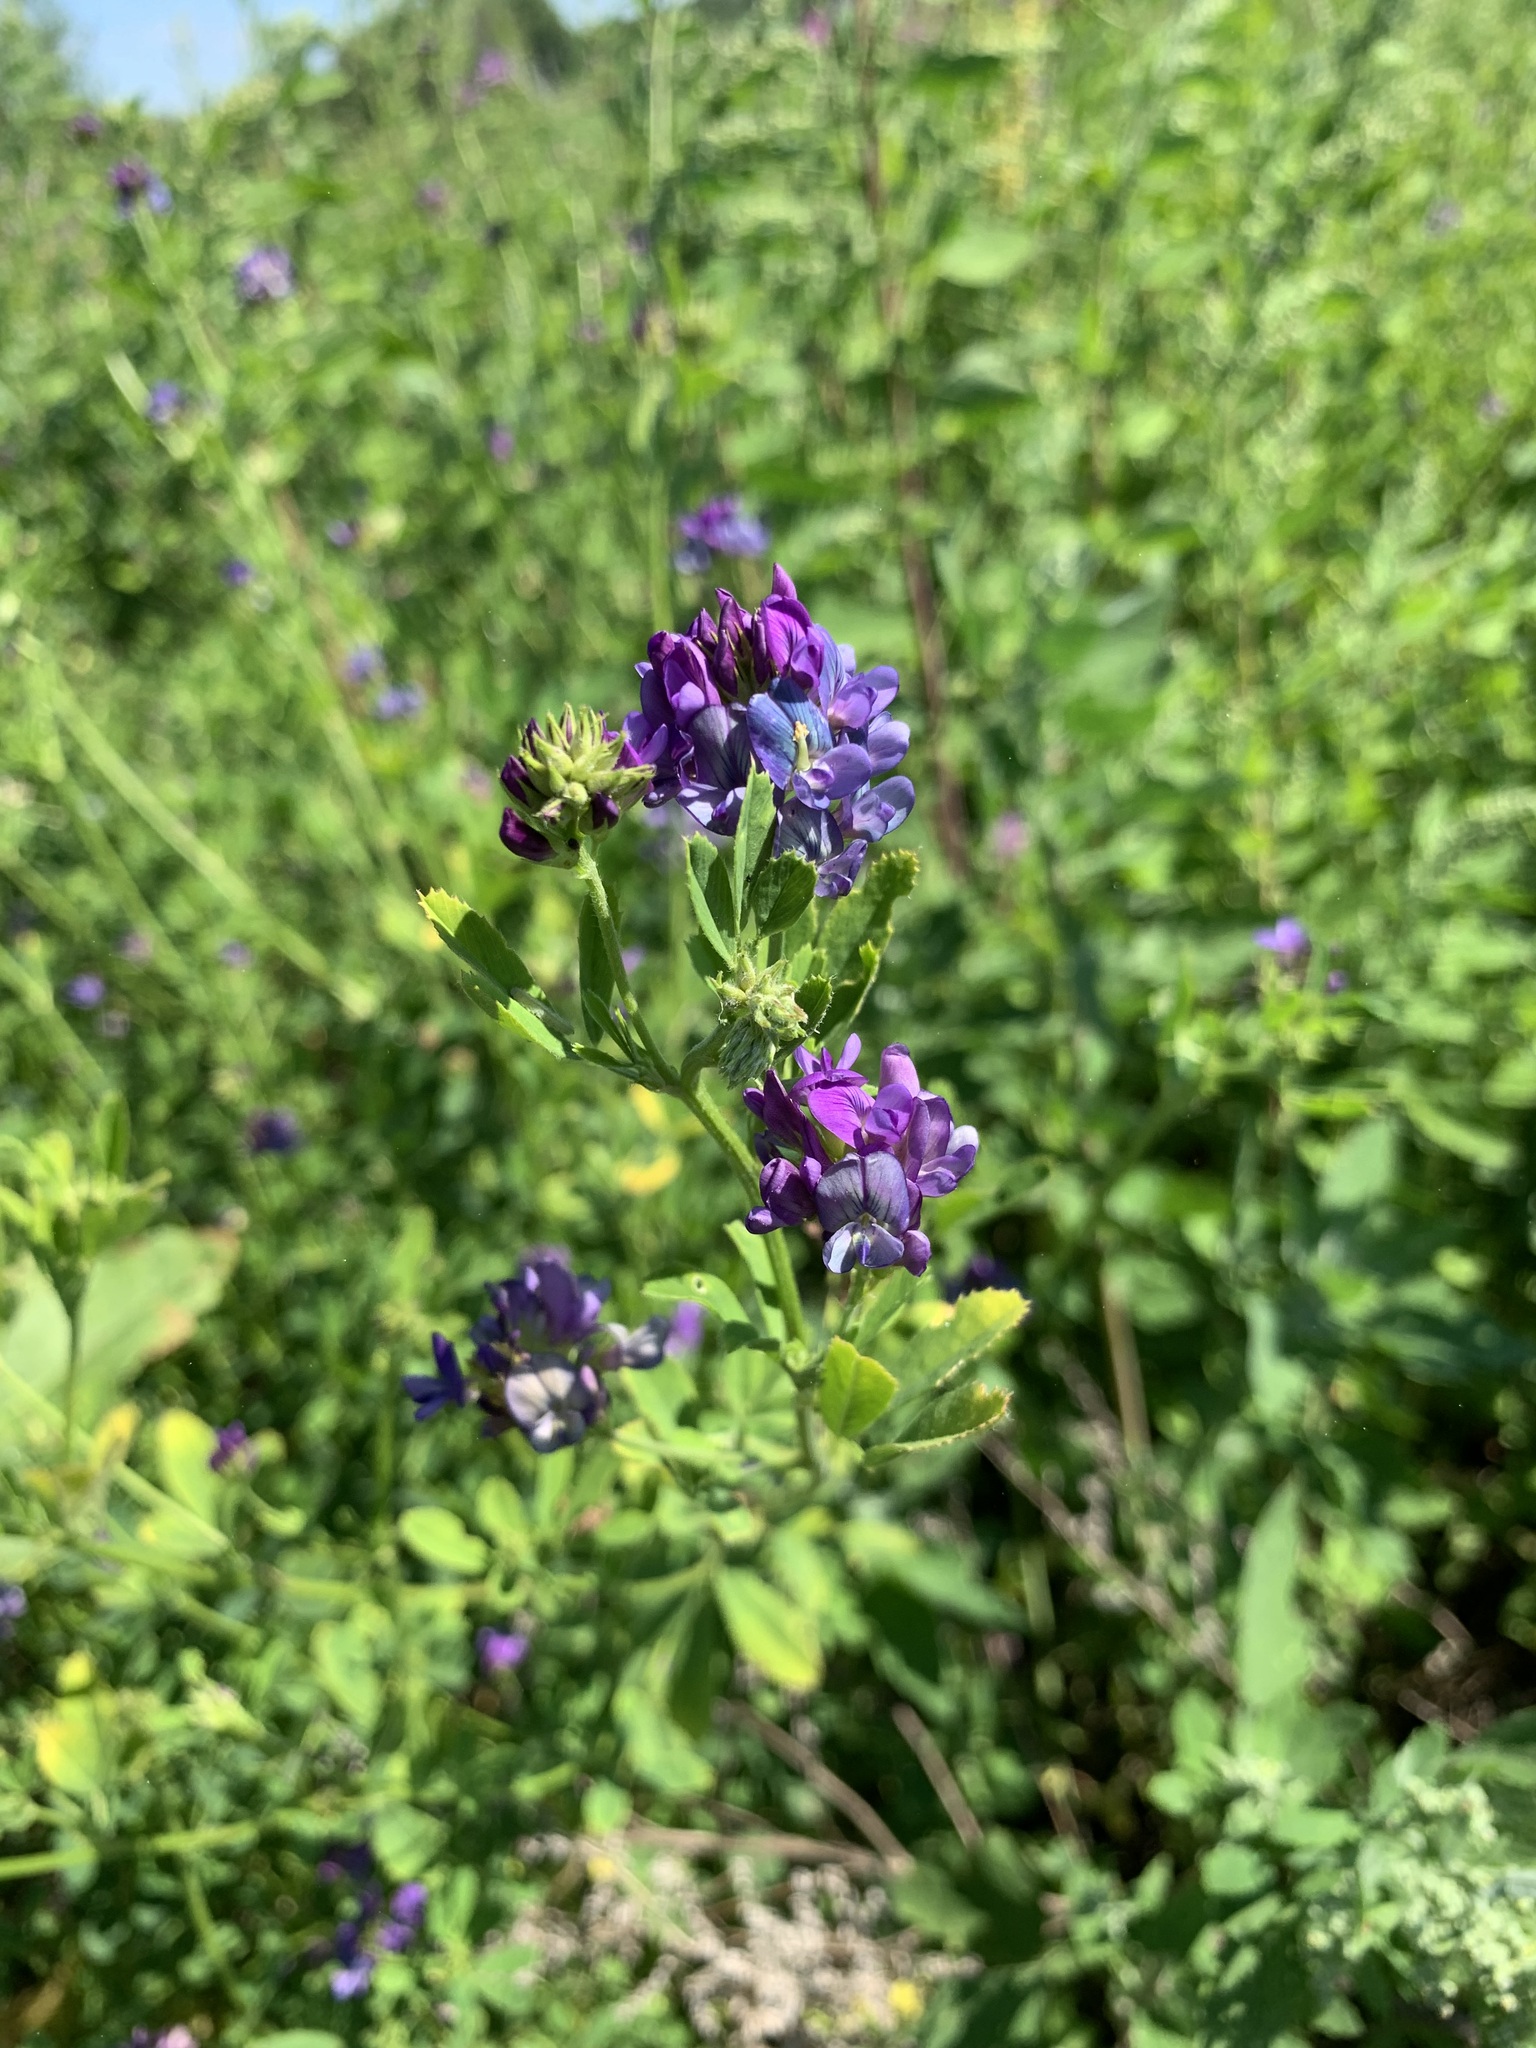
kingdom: Plantae
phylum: Tracheophyta
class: Magnoliopsida
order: Fabales
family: Fabaceae
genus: Medicago
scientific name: Medicago sativa
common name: Alfalfa
